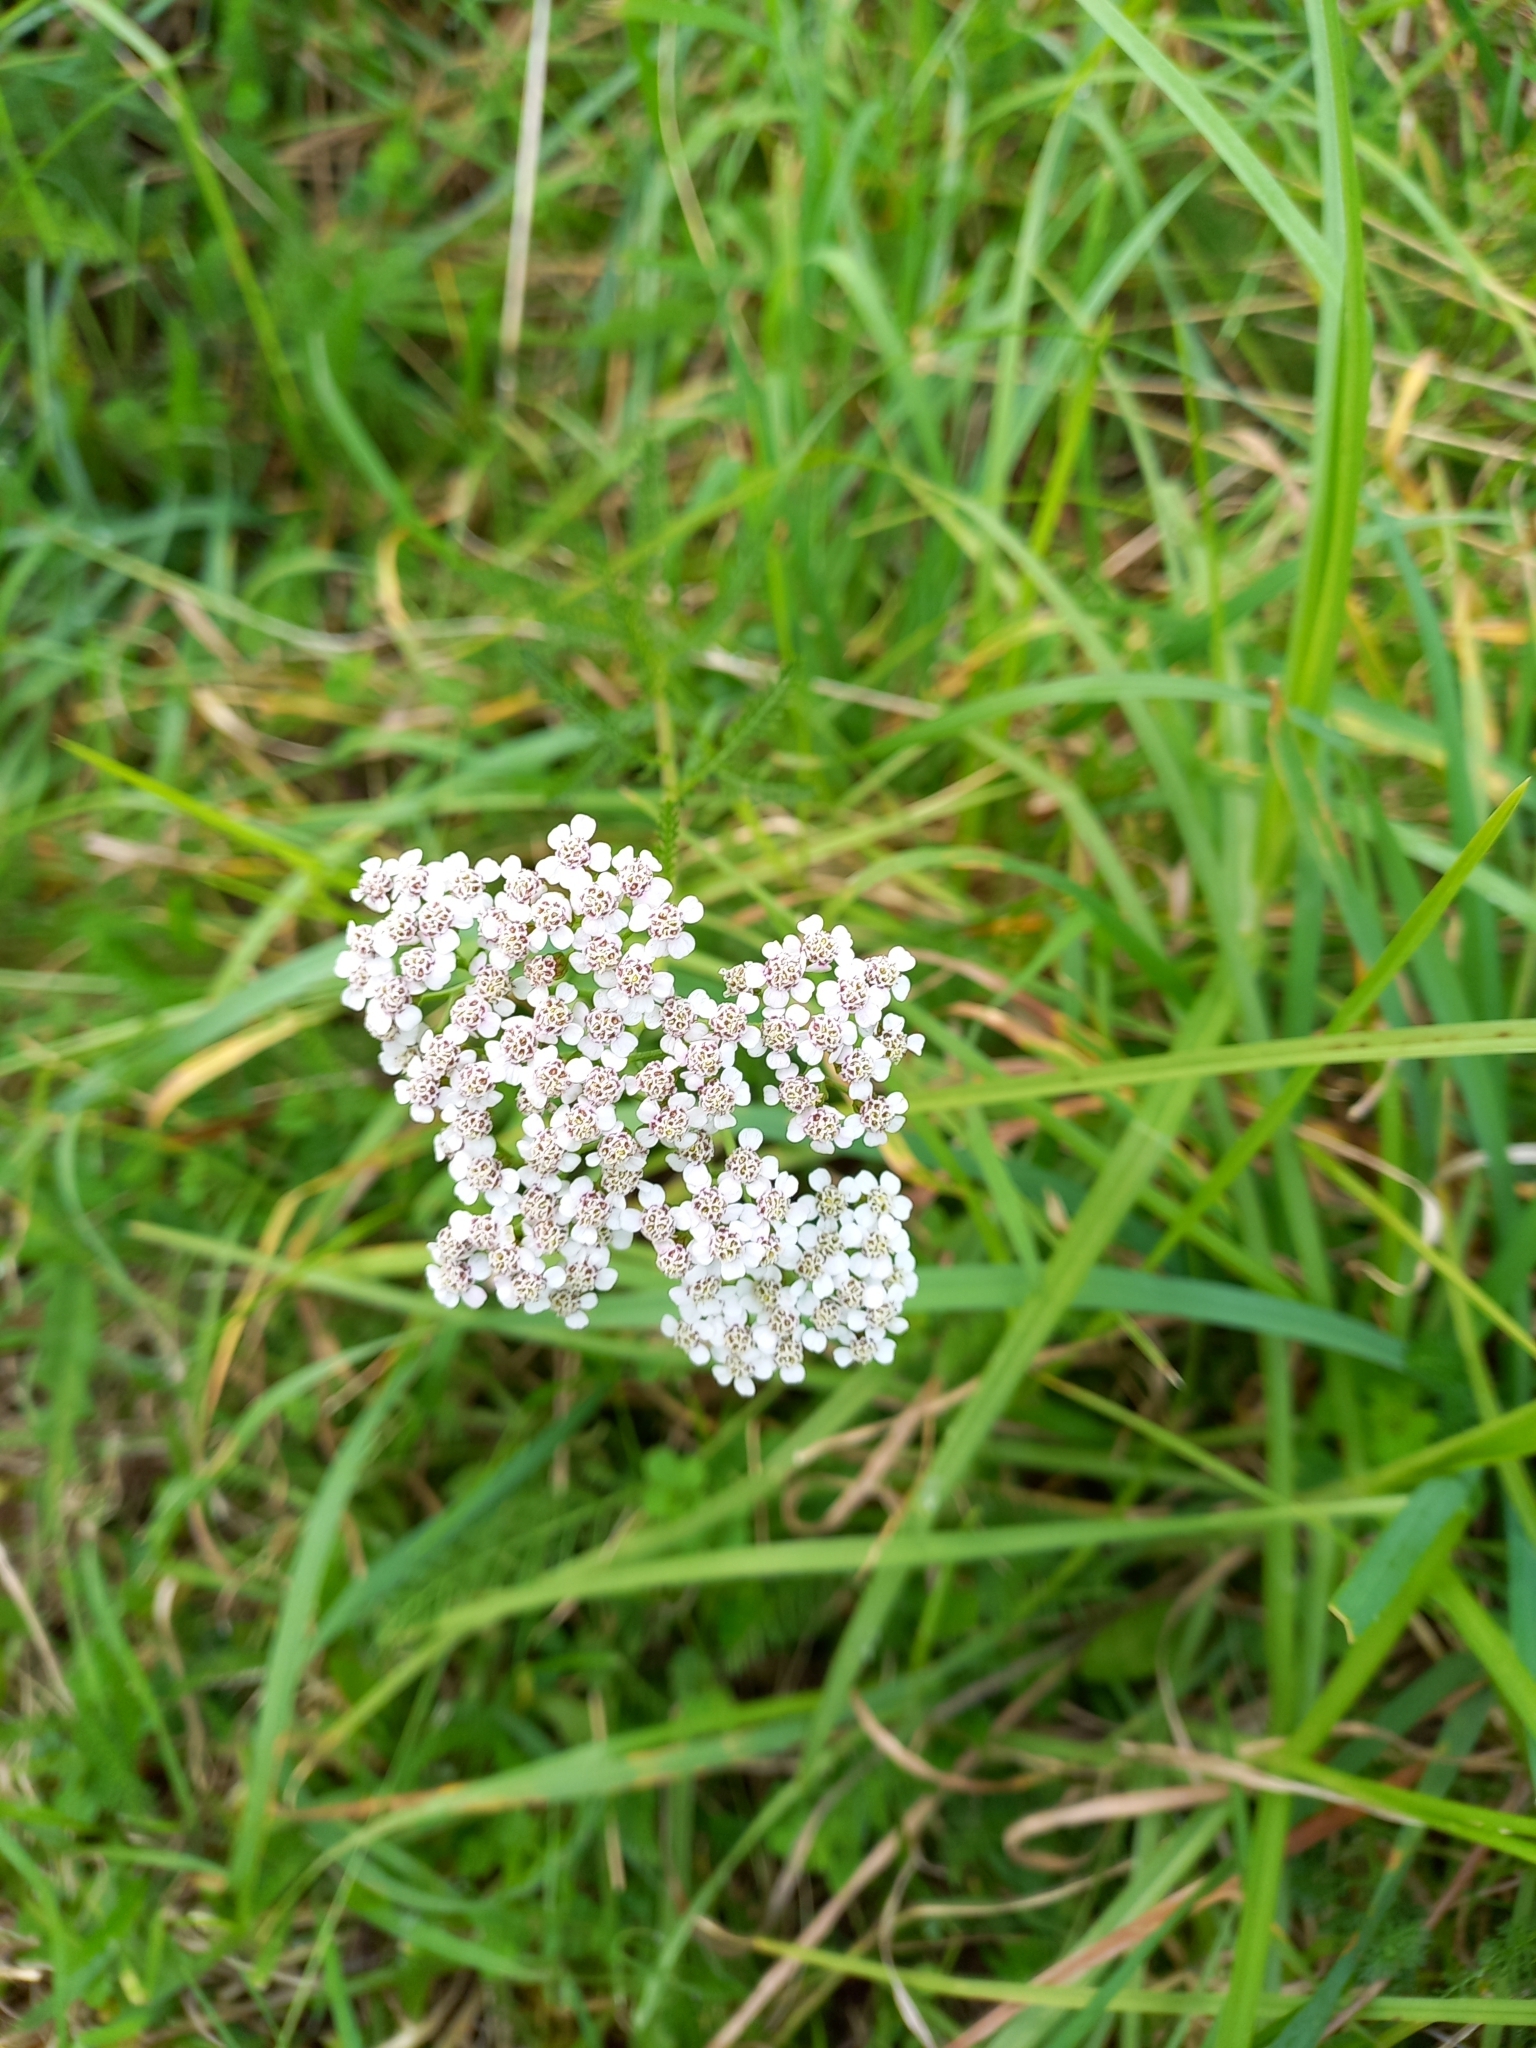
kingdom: Plantae
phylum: Tracheophyta
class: Magnoliopsida
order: Asterales
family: Asteraceae
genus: Achillea
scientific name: Achillea millefolium
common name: Yarrow
